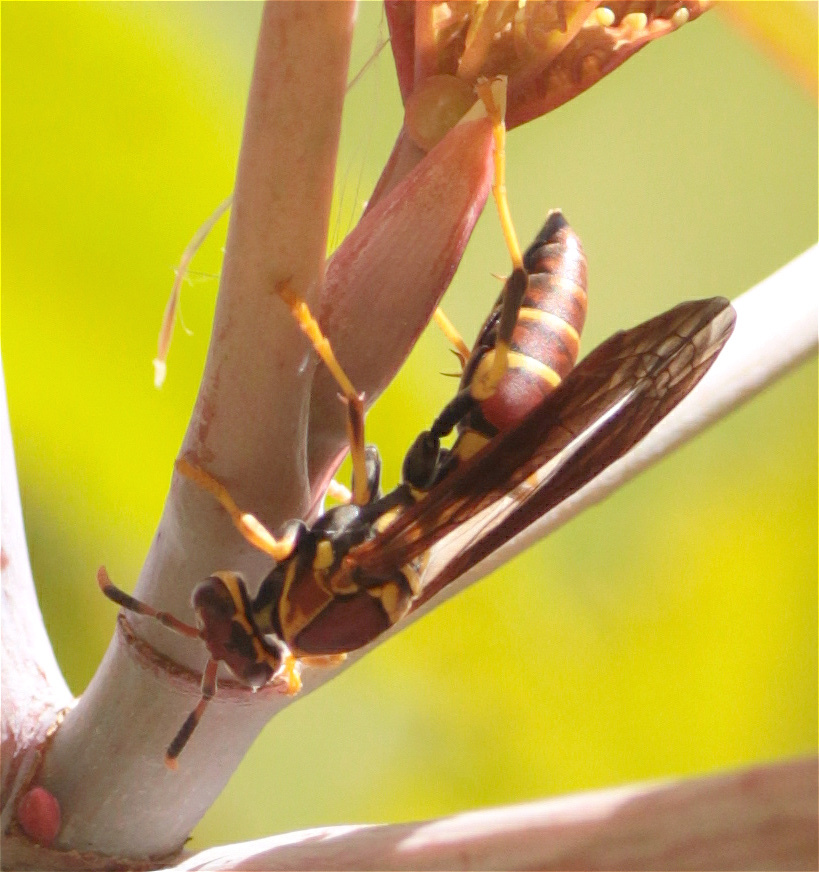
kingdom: Animalia
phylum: Arthropoda
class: Insecta
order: Hymenoptera
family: Eumenidae
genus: Polistes
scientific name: Polistes instabilis
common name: Unstable paper wasp
